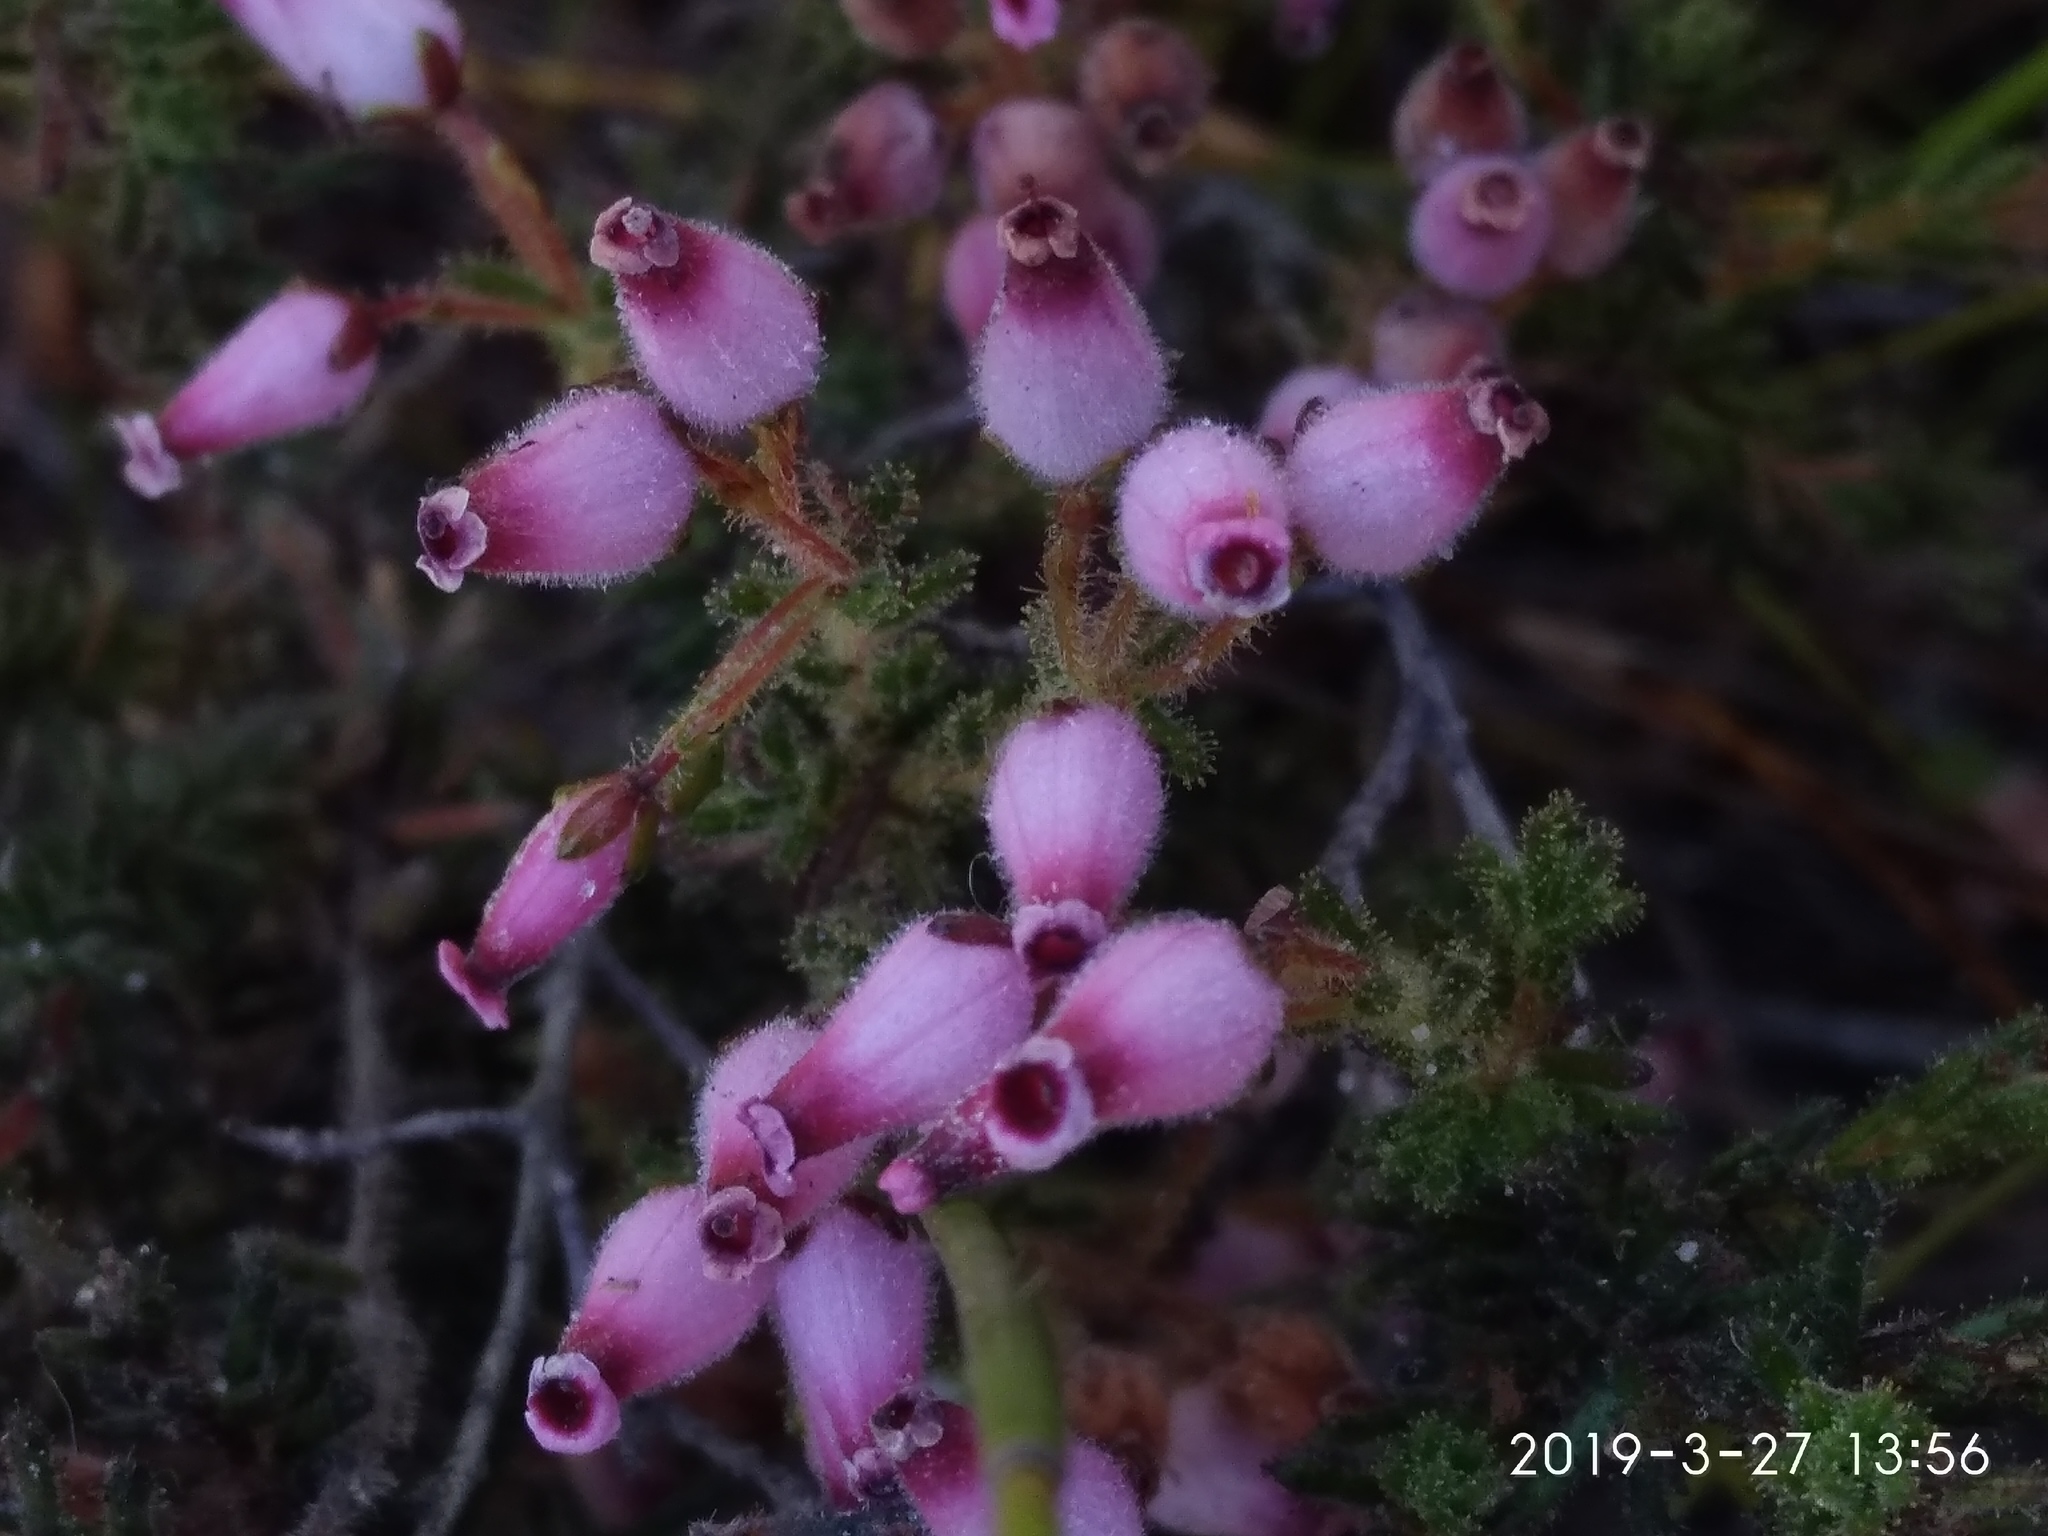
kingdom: Plantae
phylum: Tracheophyta
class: Magnoliopsida
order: Ericales
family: Ericaceae
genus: Erica
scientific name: Erica glutinosa
